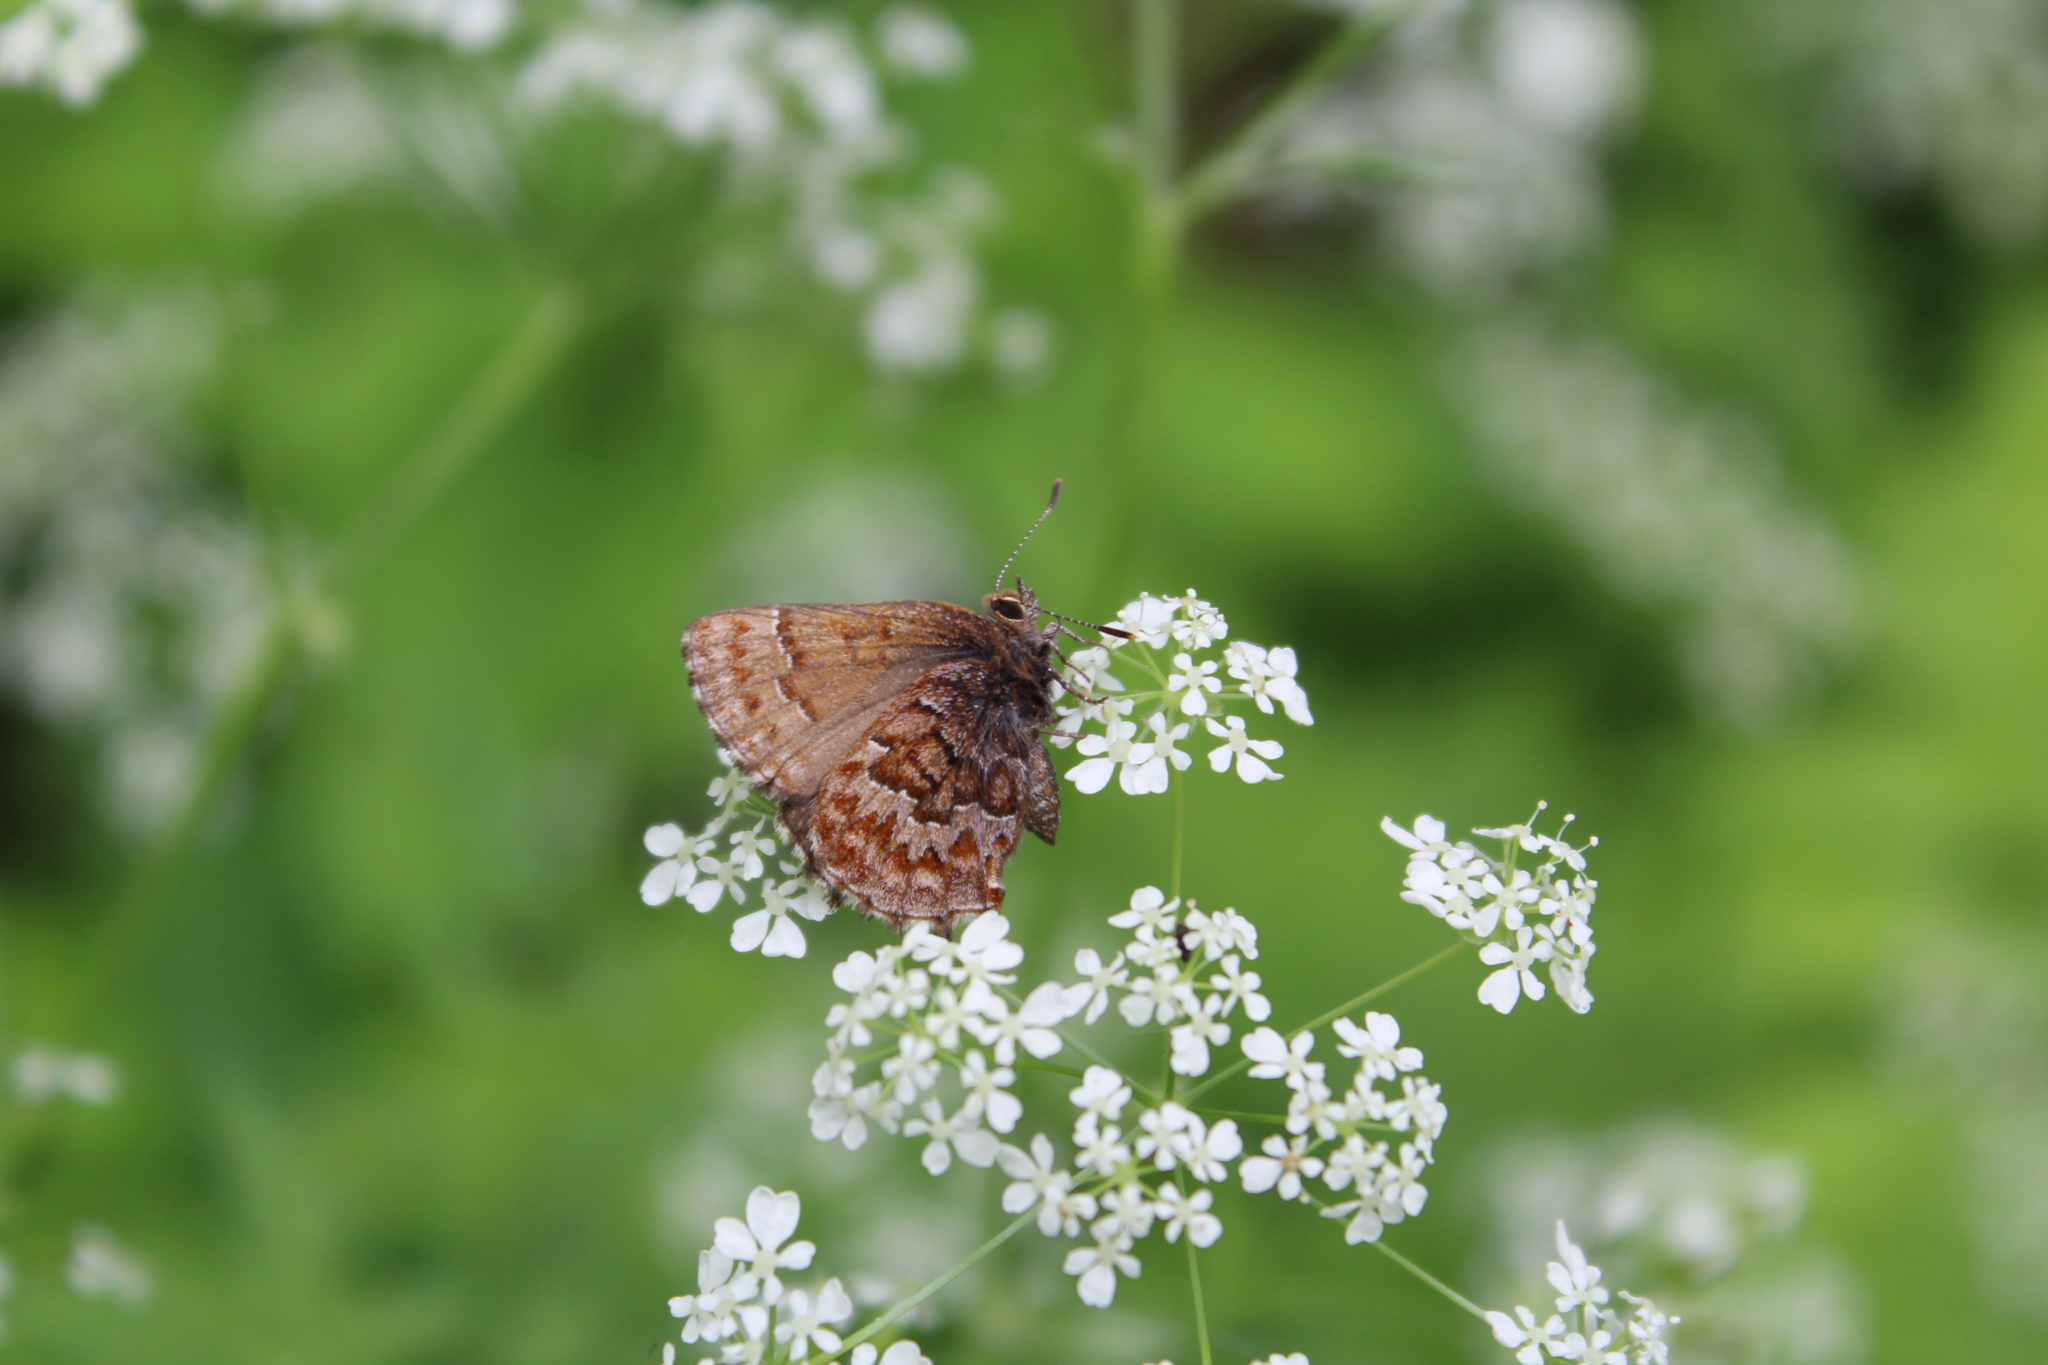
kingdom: Animalia
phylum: Arthropoda
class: Insecta
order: Lepidoptera
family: Lycaenidae
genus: Incisalia
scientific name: Incisalia niphon
